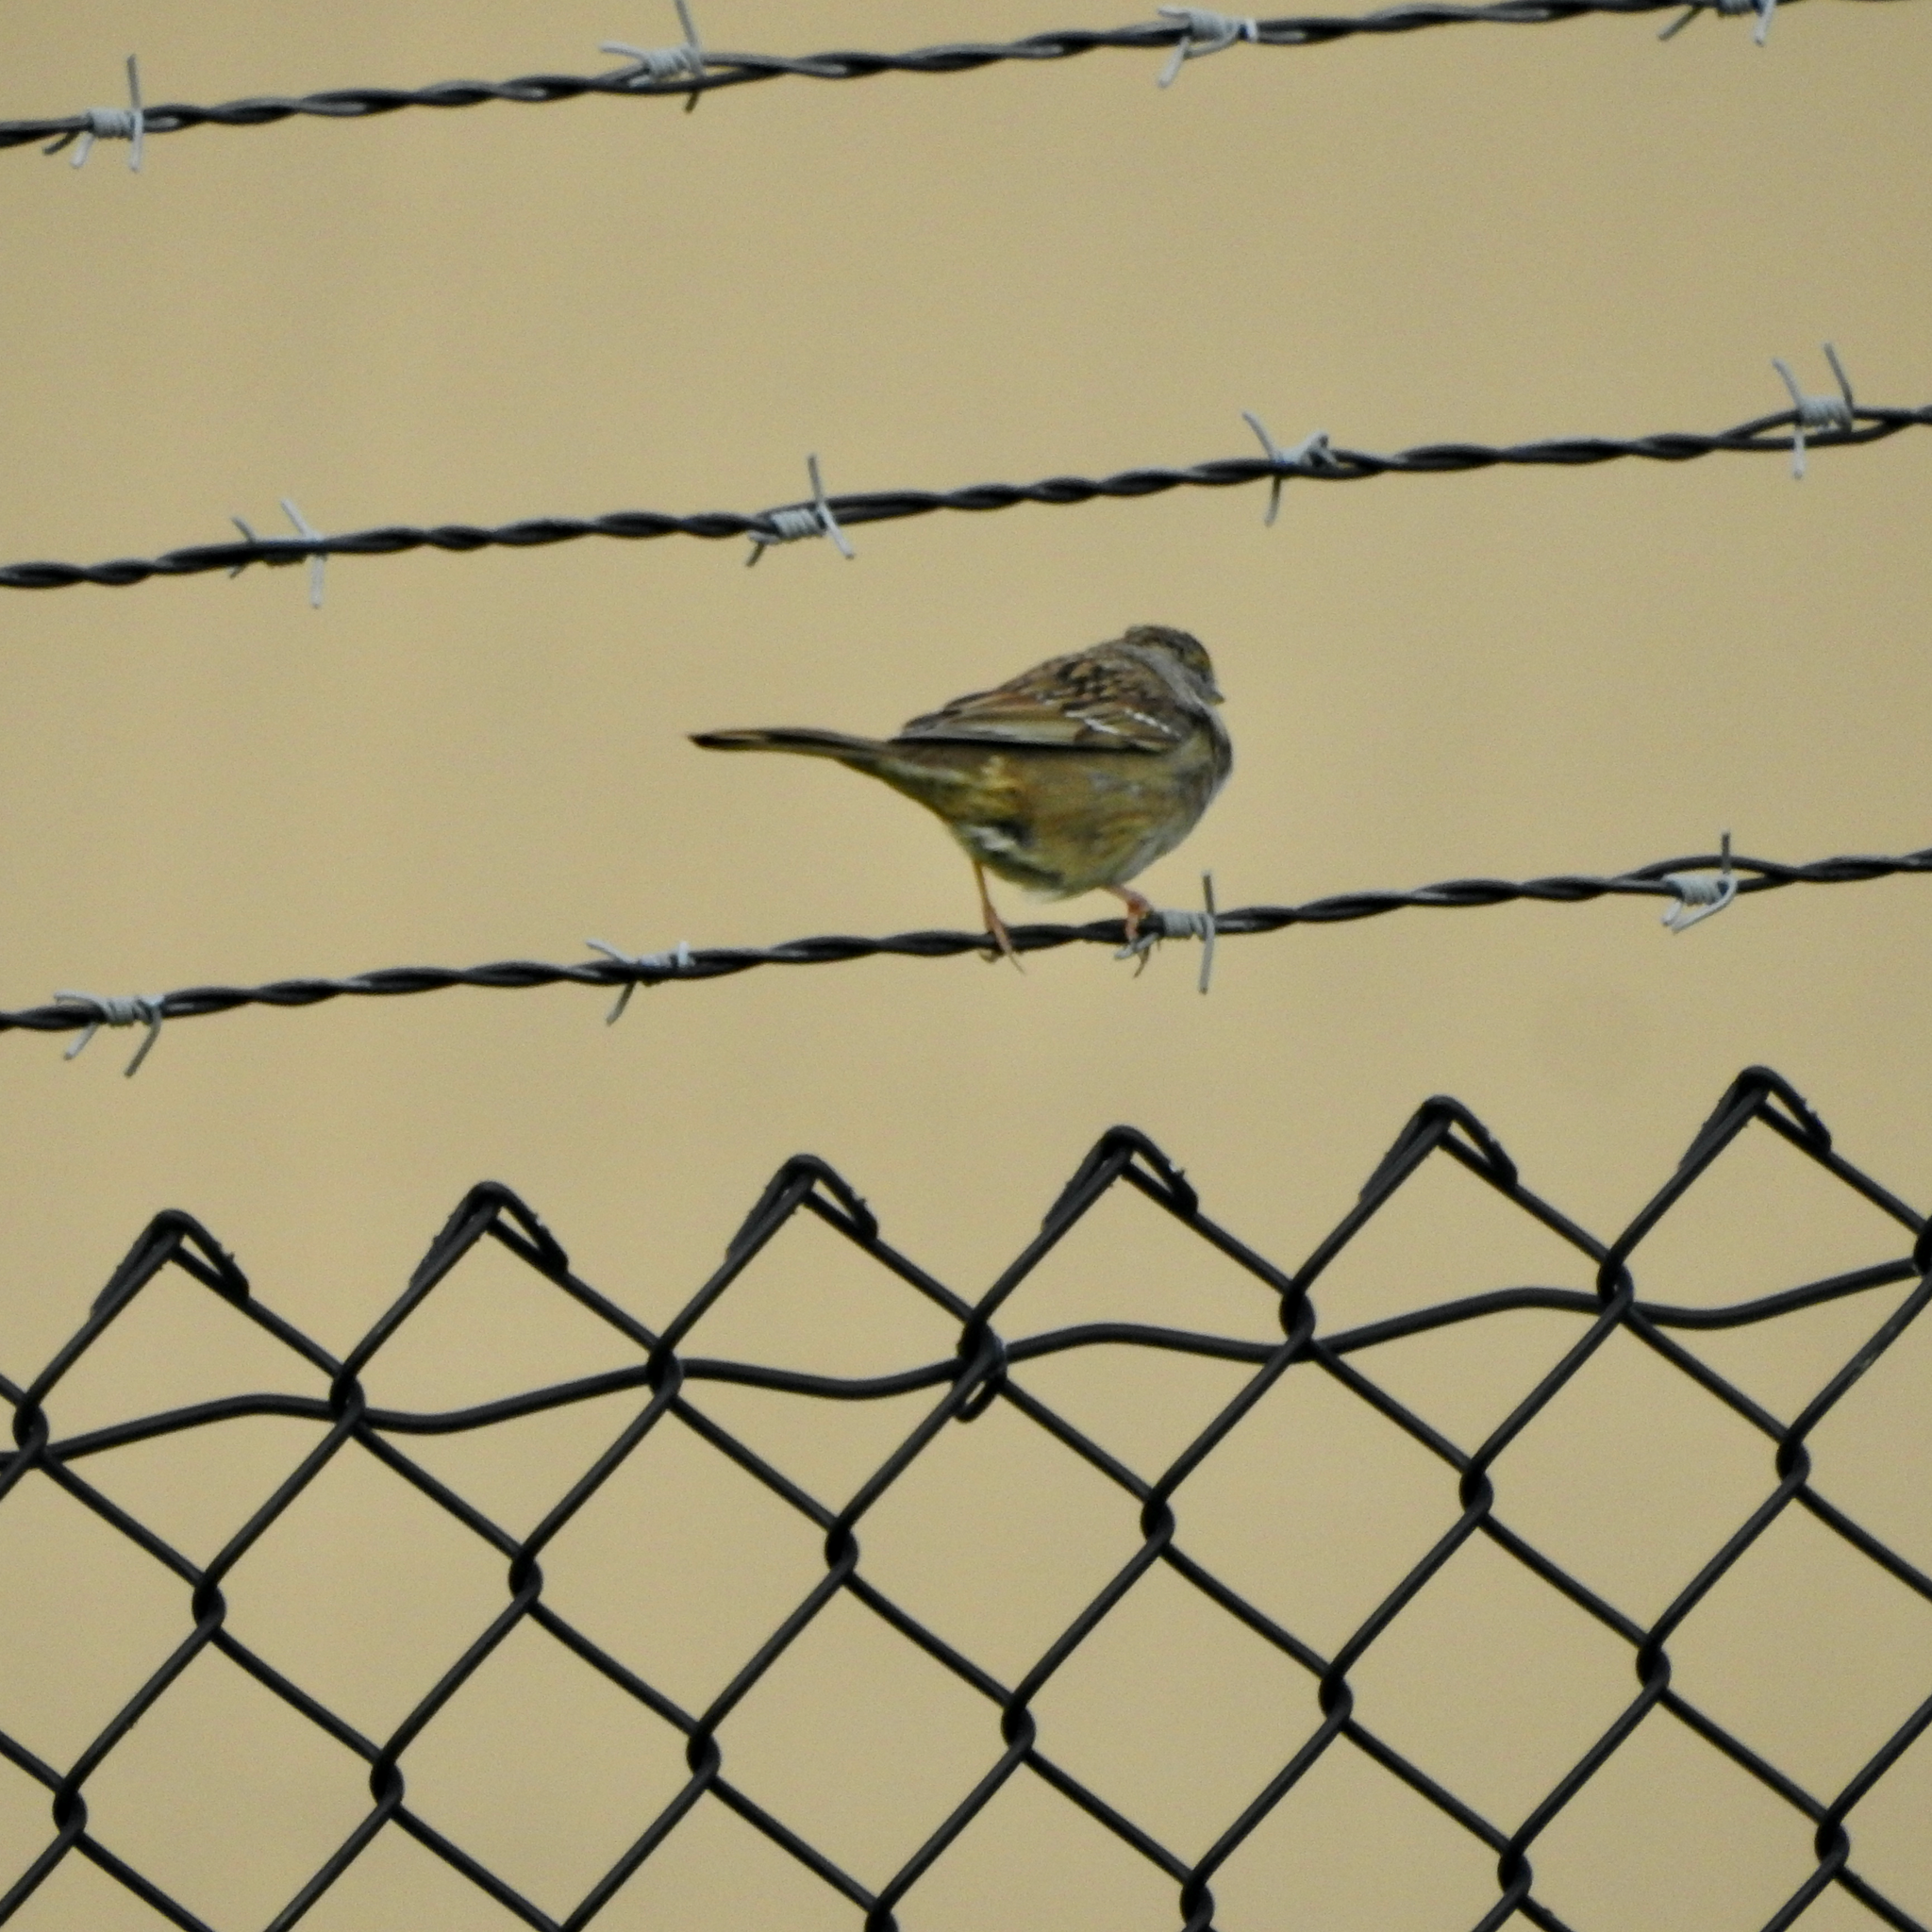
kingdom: Animalia
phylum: Chordata
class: Aves
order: Passeriformes
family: Passerellidae
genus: Zonotrichia
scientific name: Zonotrichia atricapilla
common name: Golden-crowned sparrow
